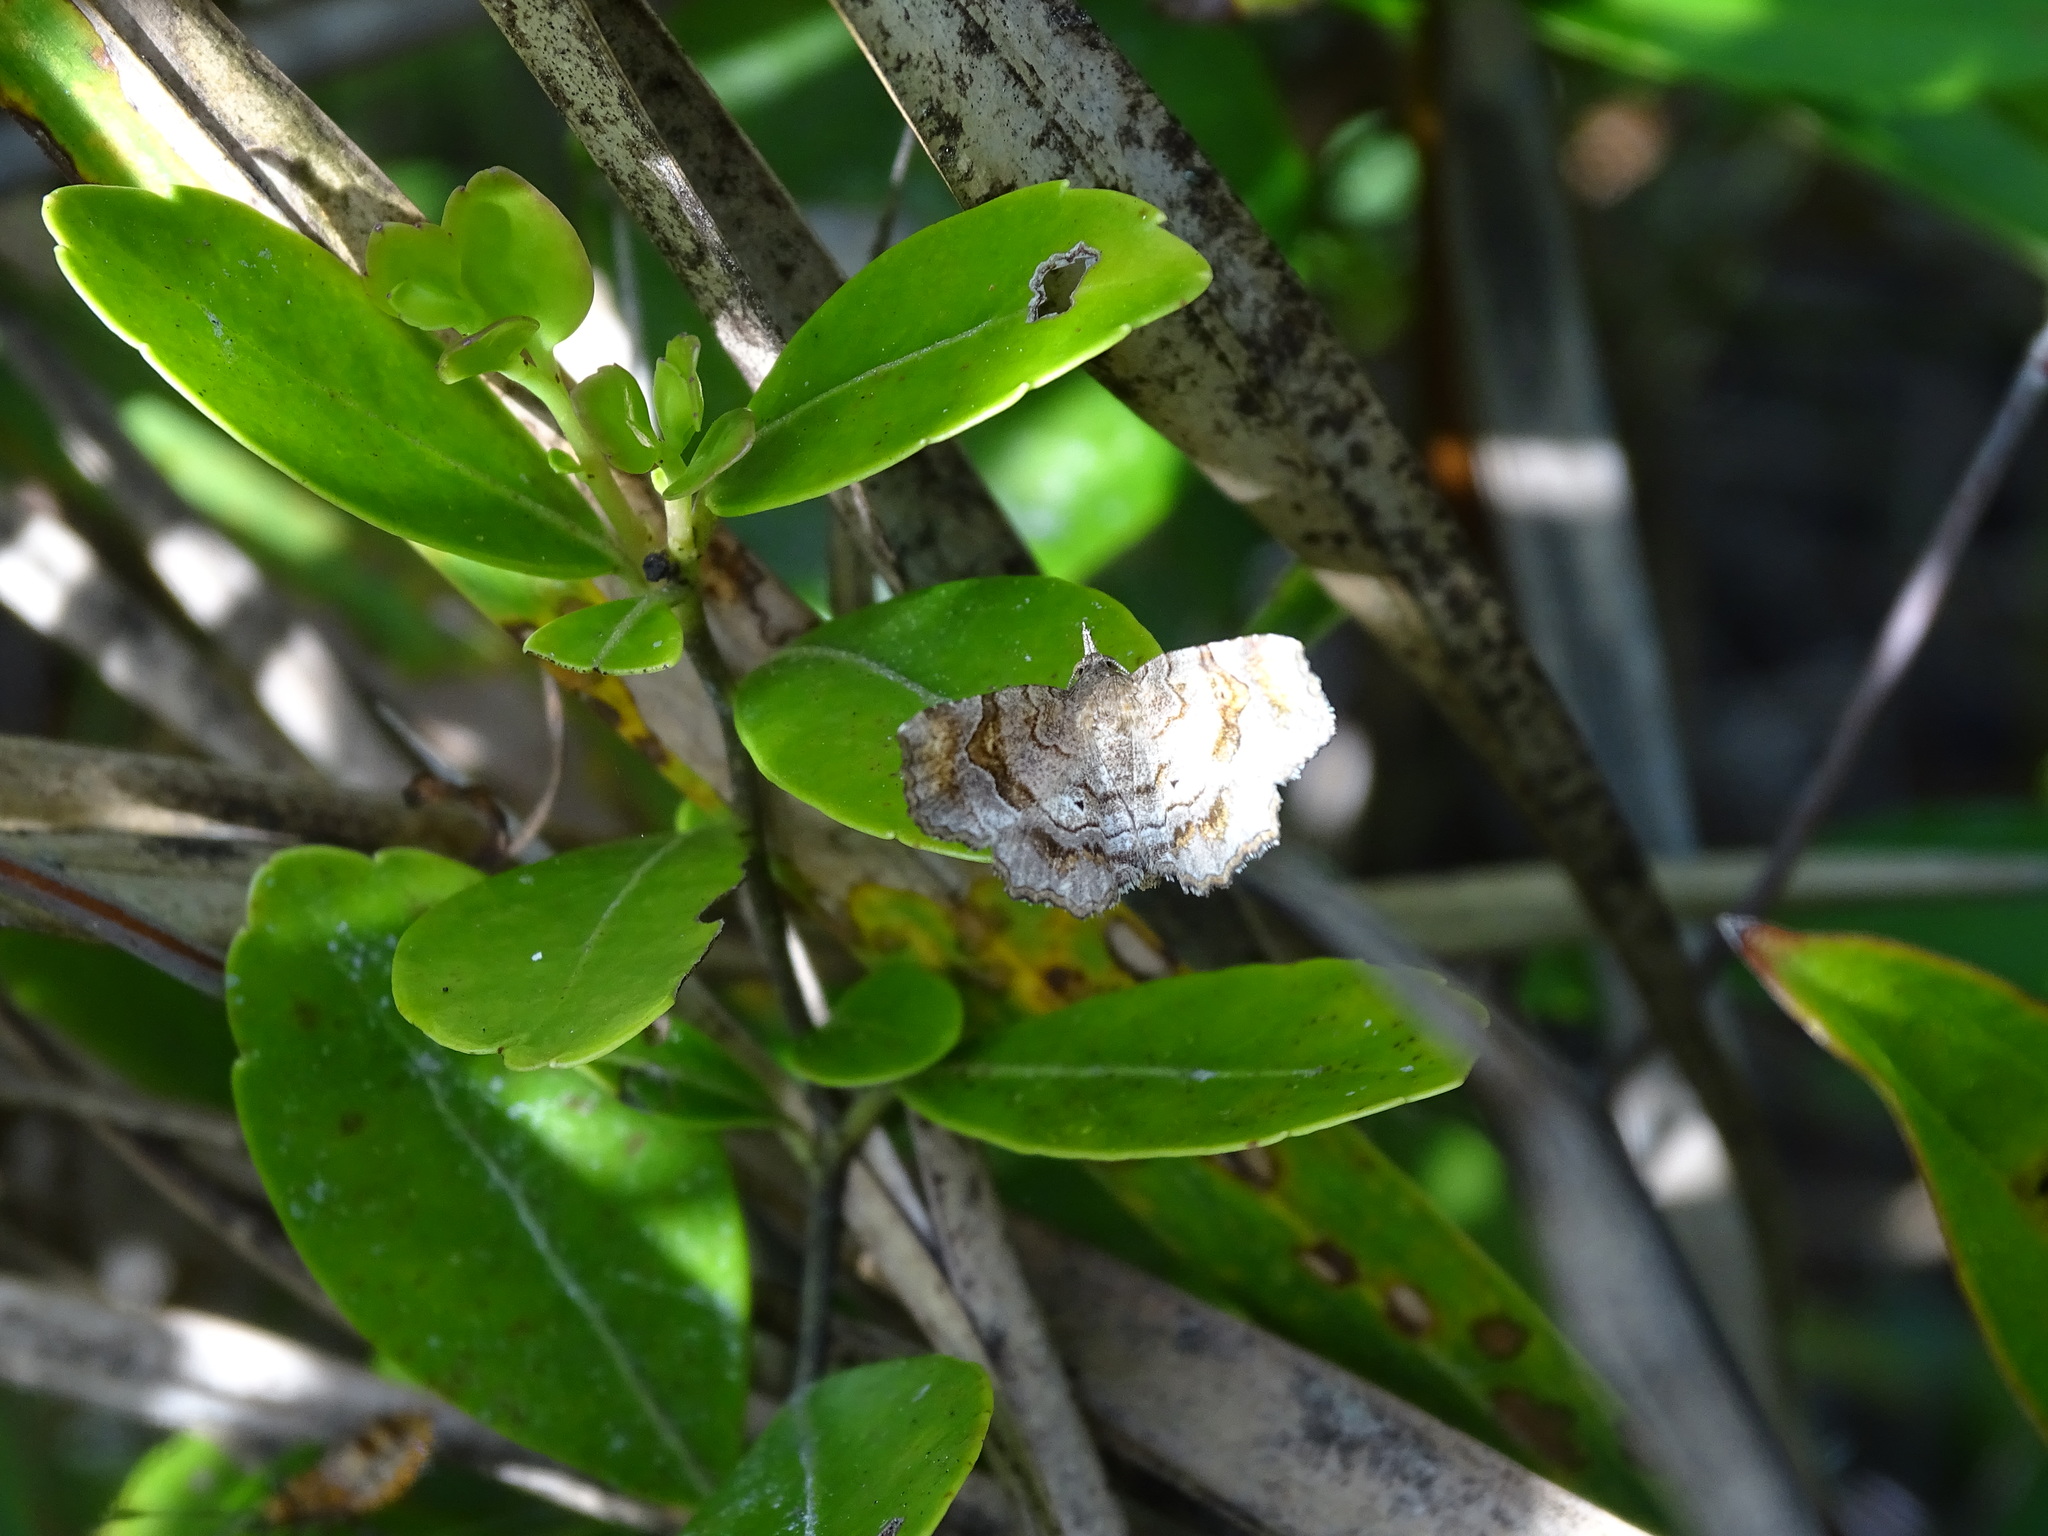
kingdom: Animalia
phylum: Arthropoda
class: Insecta
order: Lepidoptera
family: Erebidae
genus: Pangrapta
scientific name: Pangrapta decoralis
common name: Decorated owlet
